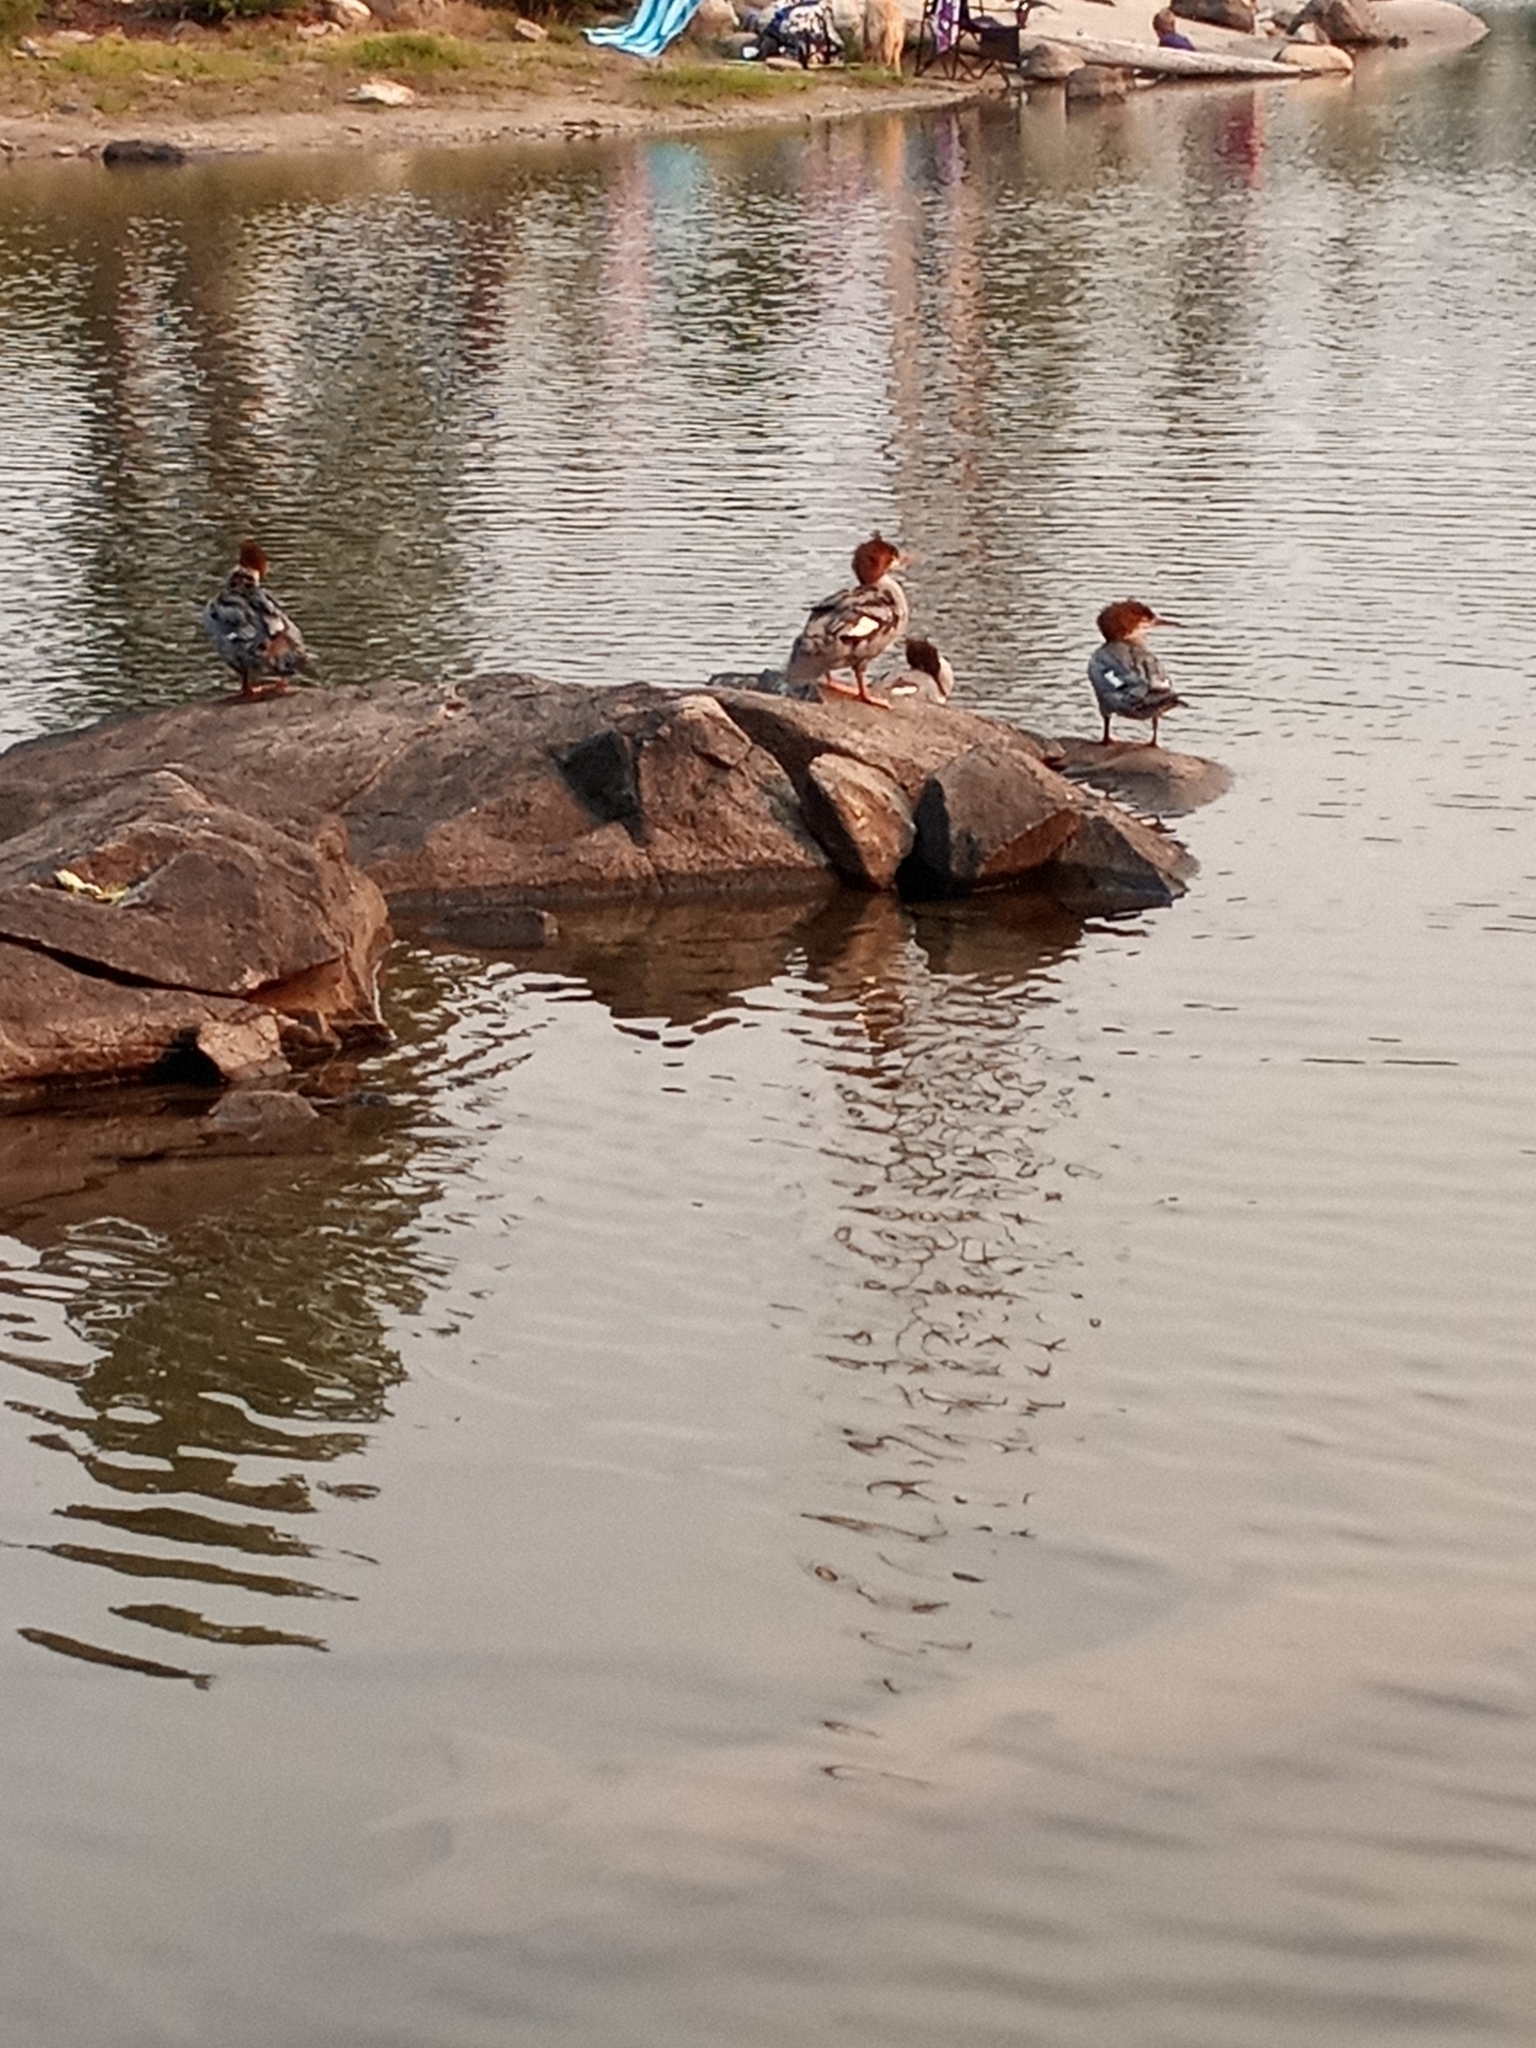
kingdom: Animalia
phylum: Chordata
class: Aves
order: Anseriformes
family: Anatidae
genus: Mergus
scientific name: Mergus merganser
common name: Common merganser
